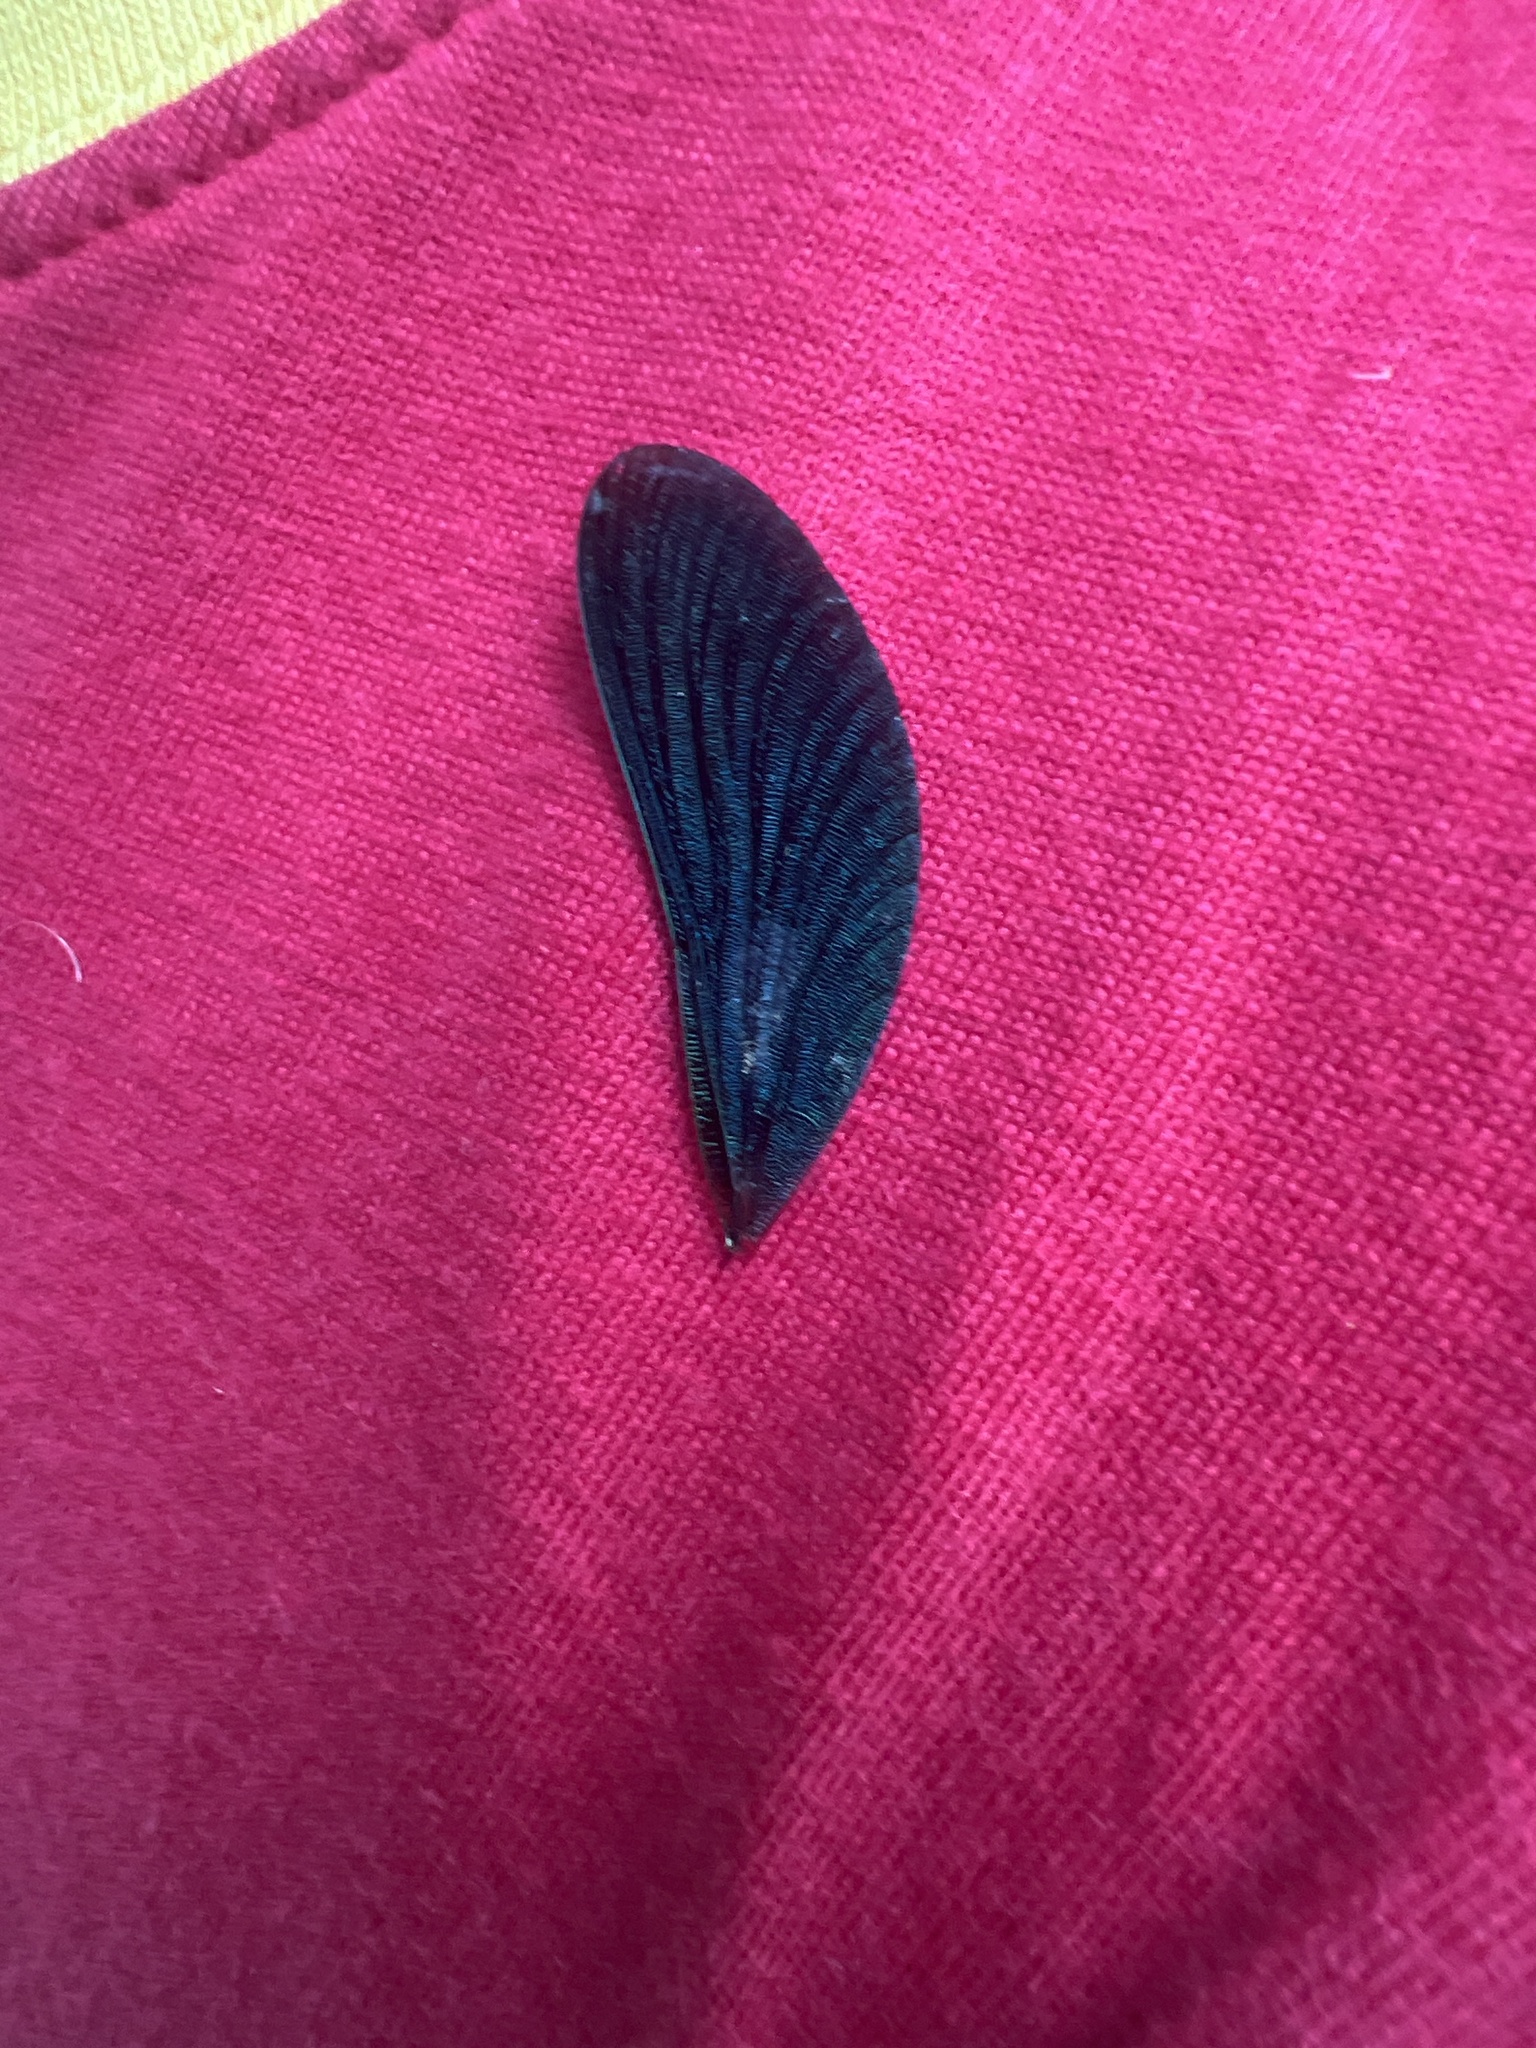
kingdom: Animalia
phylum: Arthropoda
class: Insecta
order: Odonata
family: Calopterygidae
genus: Calopteryx
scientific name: Calopteryx virgo
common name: Beautiful demoiselle
